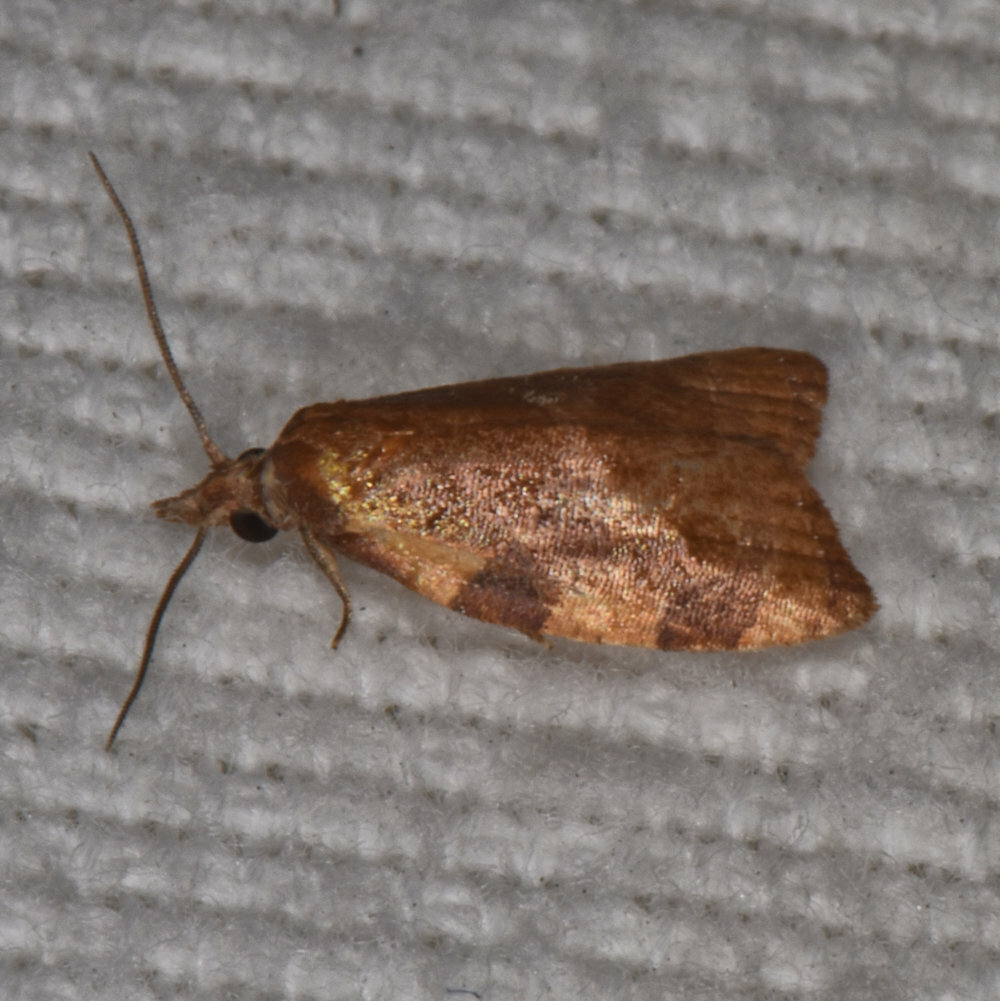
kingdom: Animalia
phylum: Arthropoda
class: Insecta
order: Lepidoptera
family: Tortricidae
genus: Cenopis
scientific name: Cenopis diluticostana
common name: Spring dead-leaf roller moth
